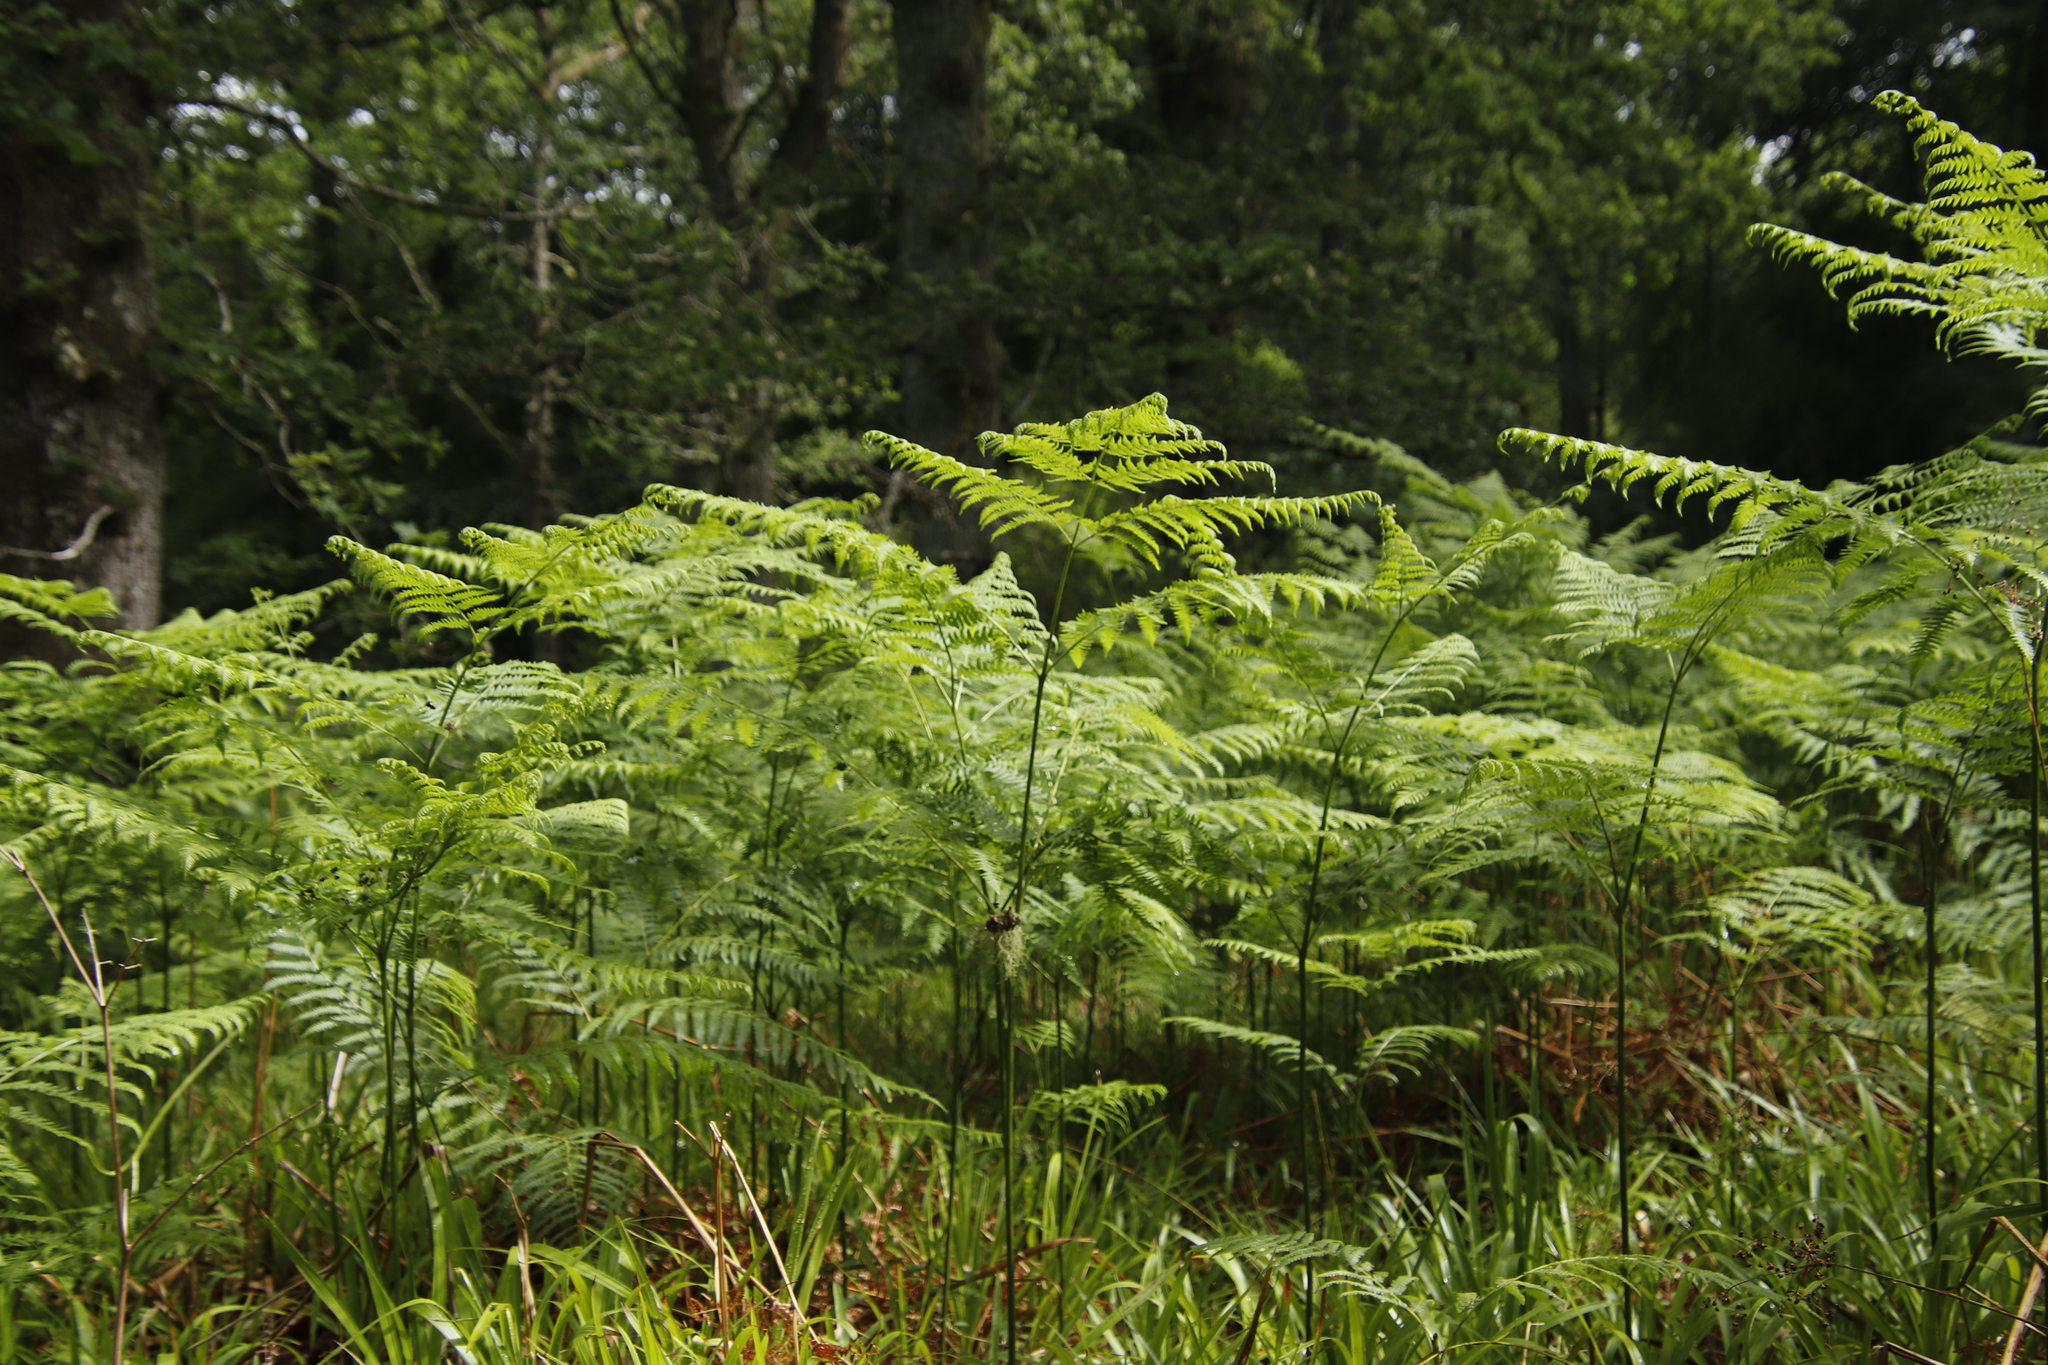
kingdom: Plantae
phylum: Tracheophyta
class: Polypodiopsida
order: Polypodiales
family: Dennstaedtiaceae
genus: Pteridium
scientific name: Pteridium aquilinum
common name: Bracken
